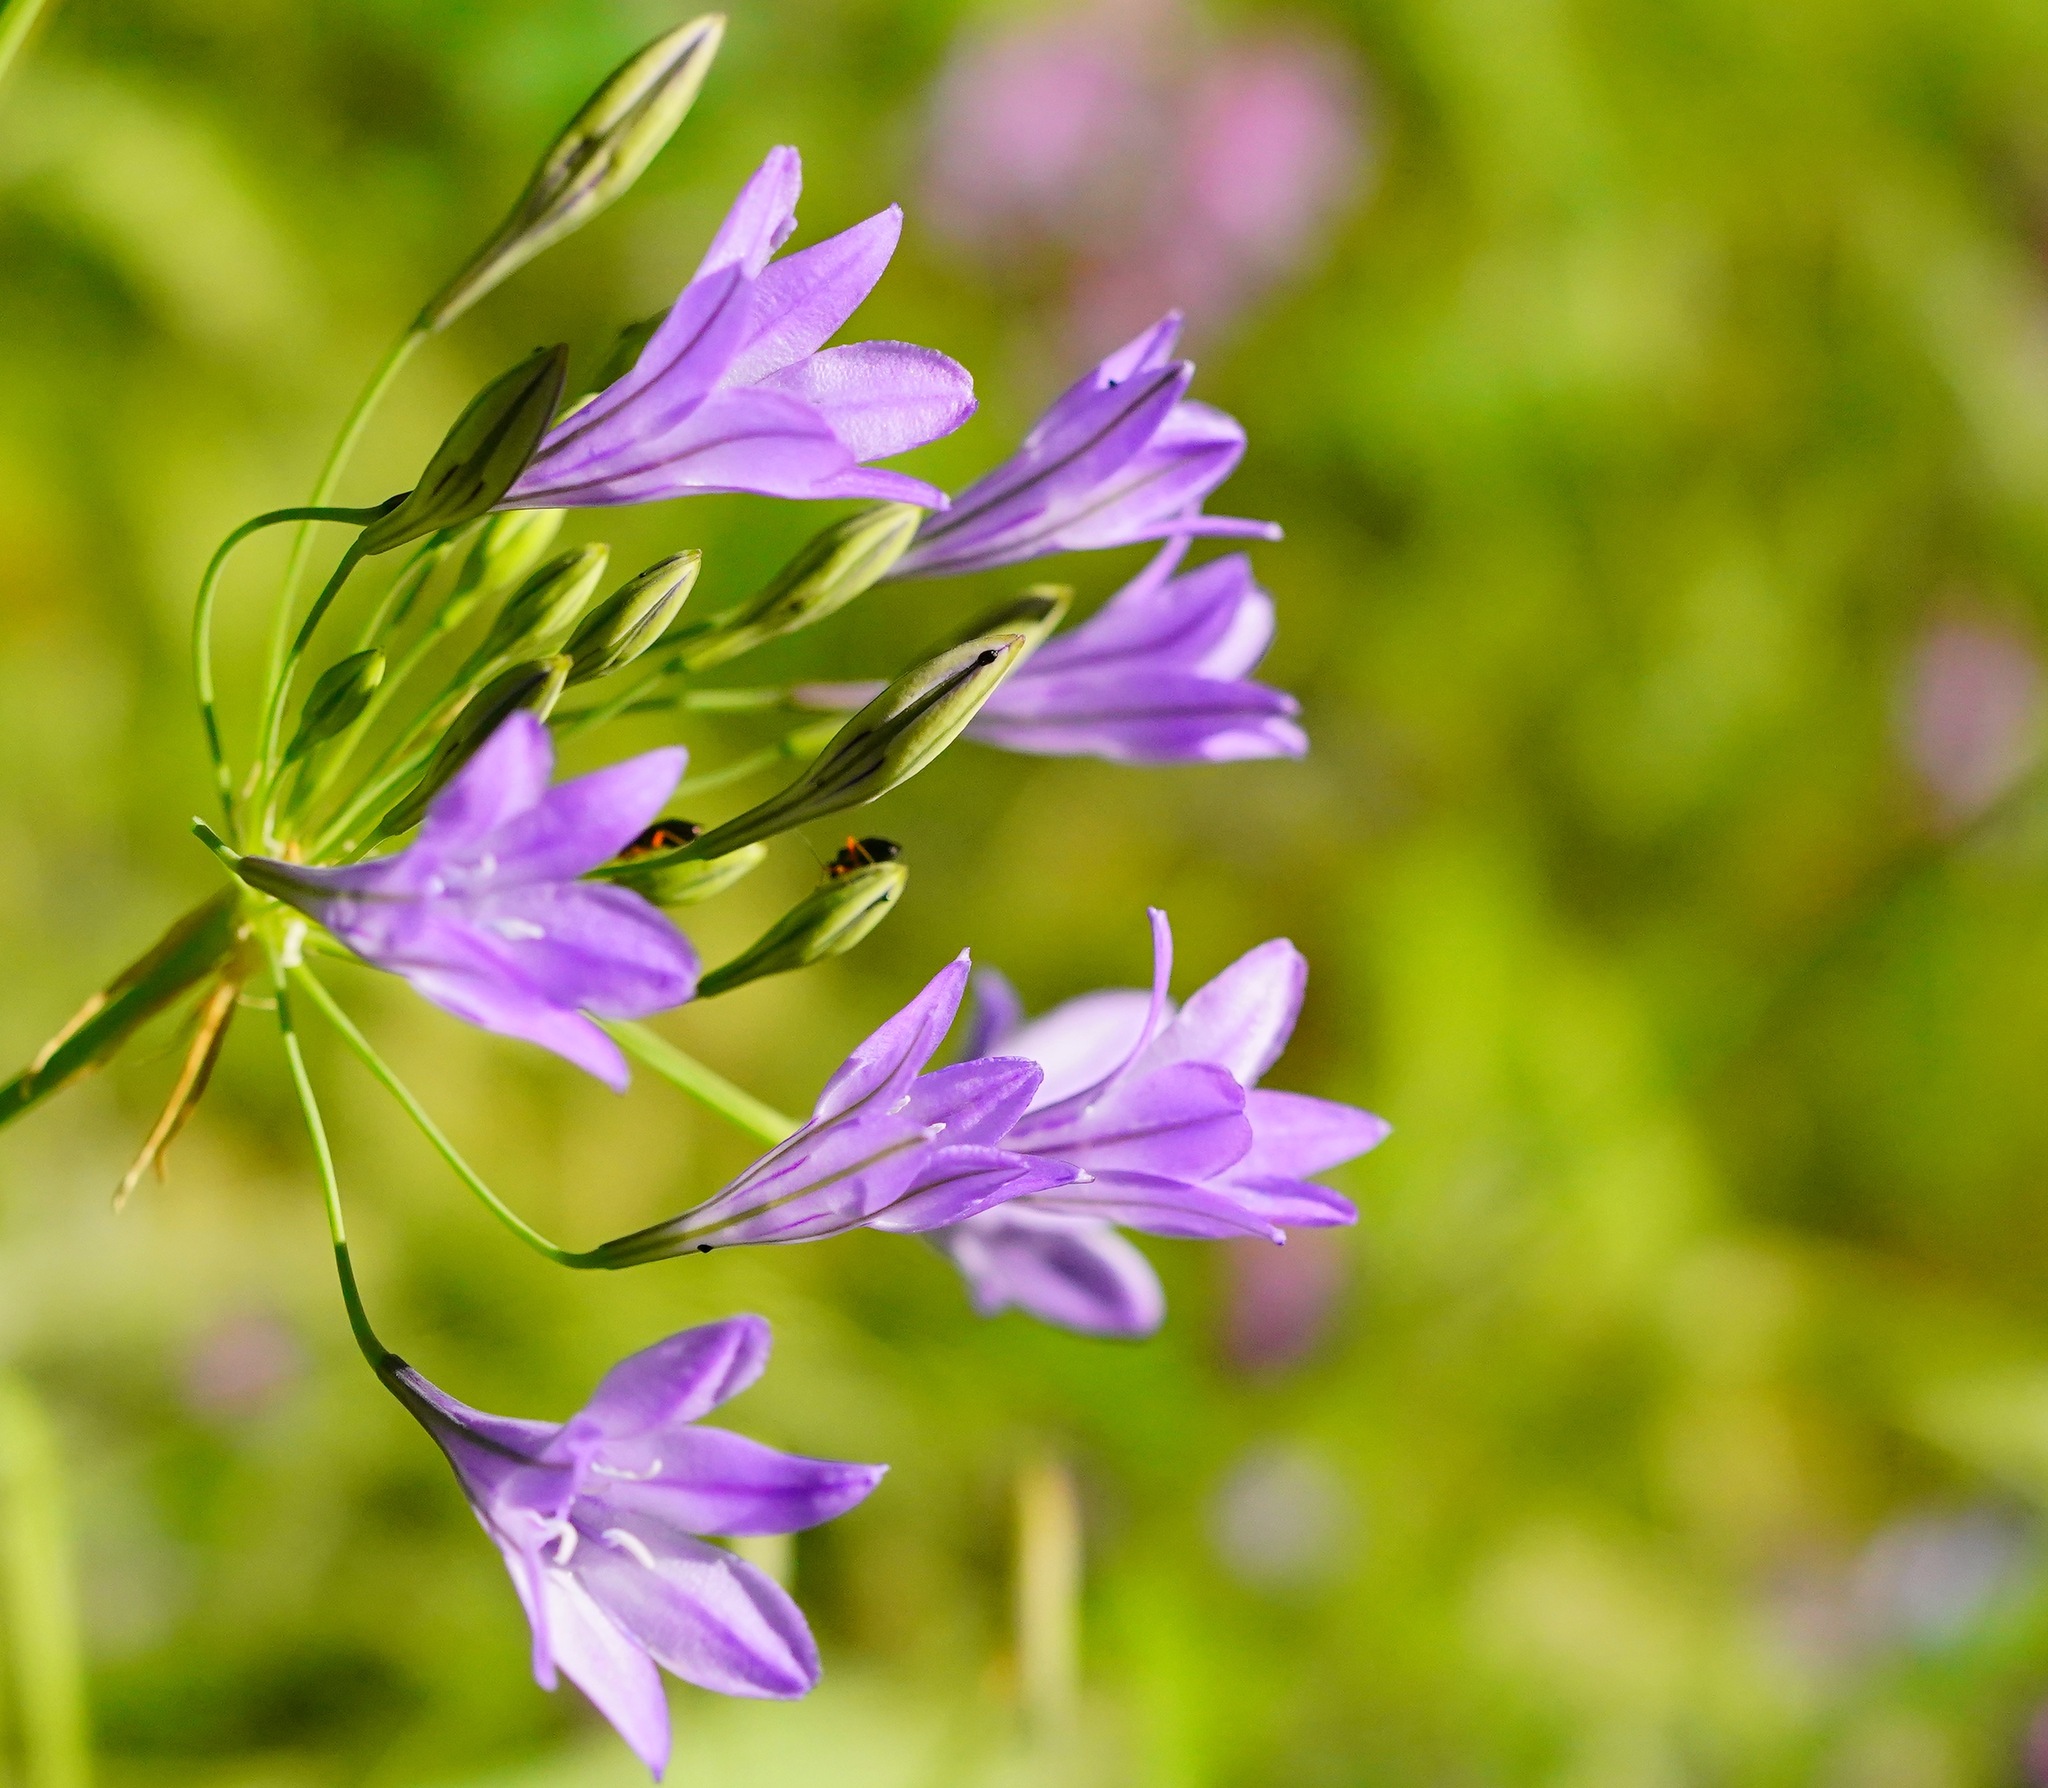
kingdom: Plantae
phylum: Tracheophyta
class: Liliopsida
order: Asparagales
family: Asparagaceae
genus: Triteleia
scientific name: Triteleia laxa
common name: Triplet-lily
